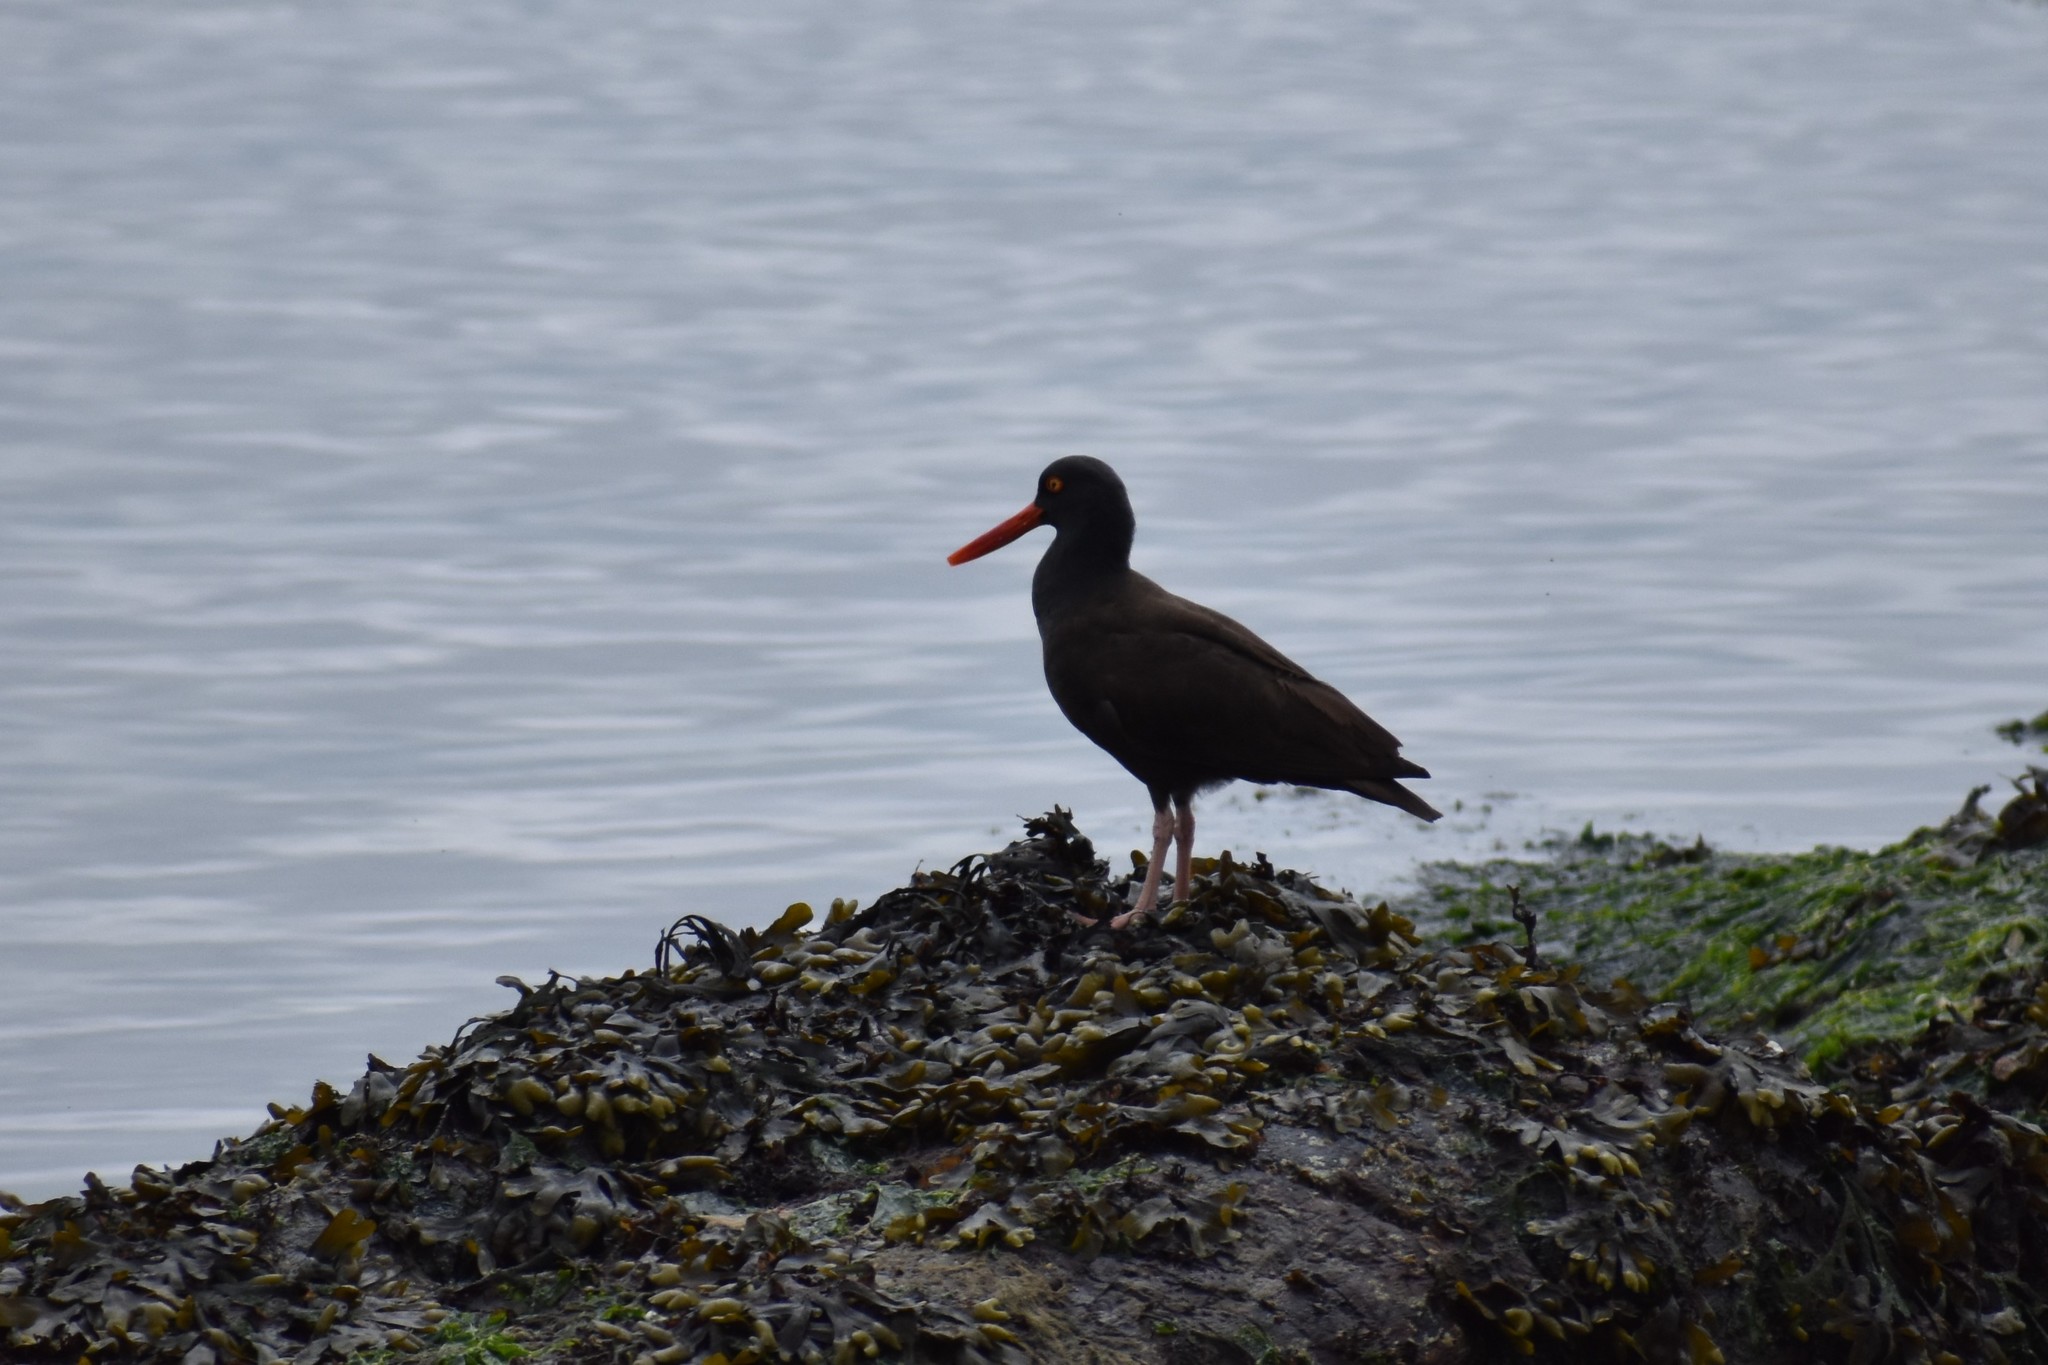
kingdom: Animalia
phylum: Chordata
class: Aves
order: Charadriiformes
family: Haematopodidae
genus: Haematopus
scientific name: Haematopus bachmani
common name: Black oystercatcher
